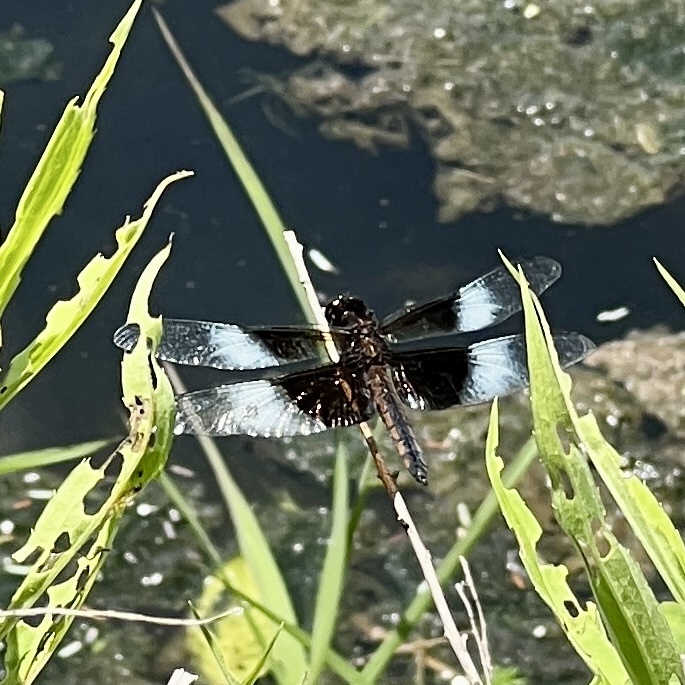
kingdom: Animalia
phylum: Arthropoda
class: Insecta
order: Odonata
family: Libellulidae
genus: Libellula
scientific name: Libellula luctuosa
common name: Widow skimmer
